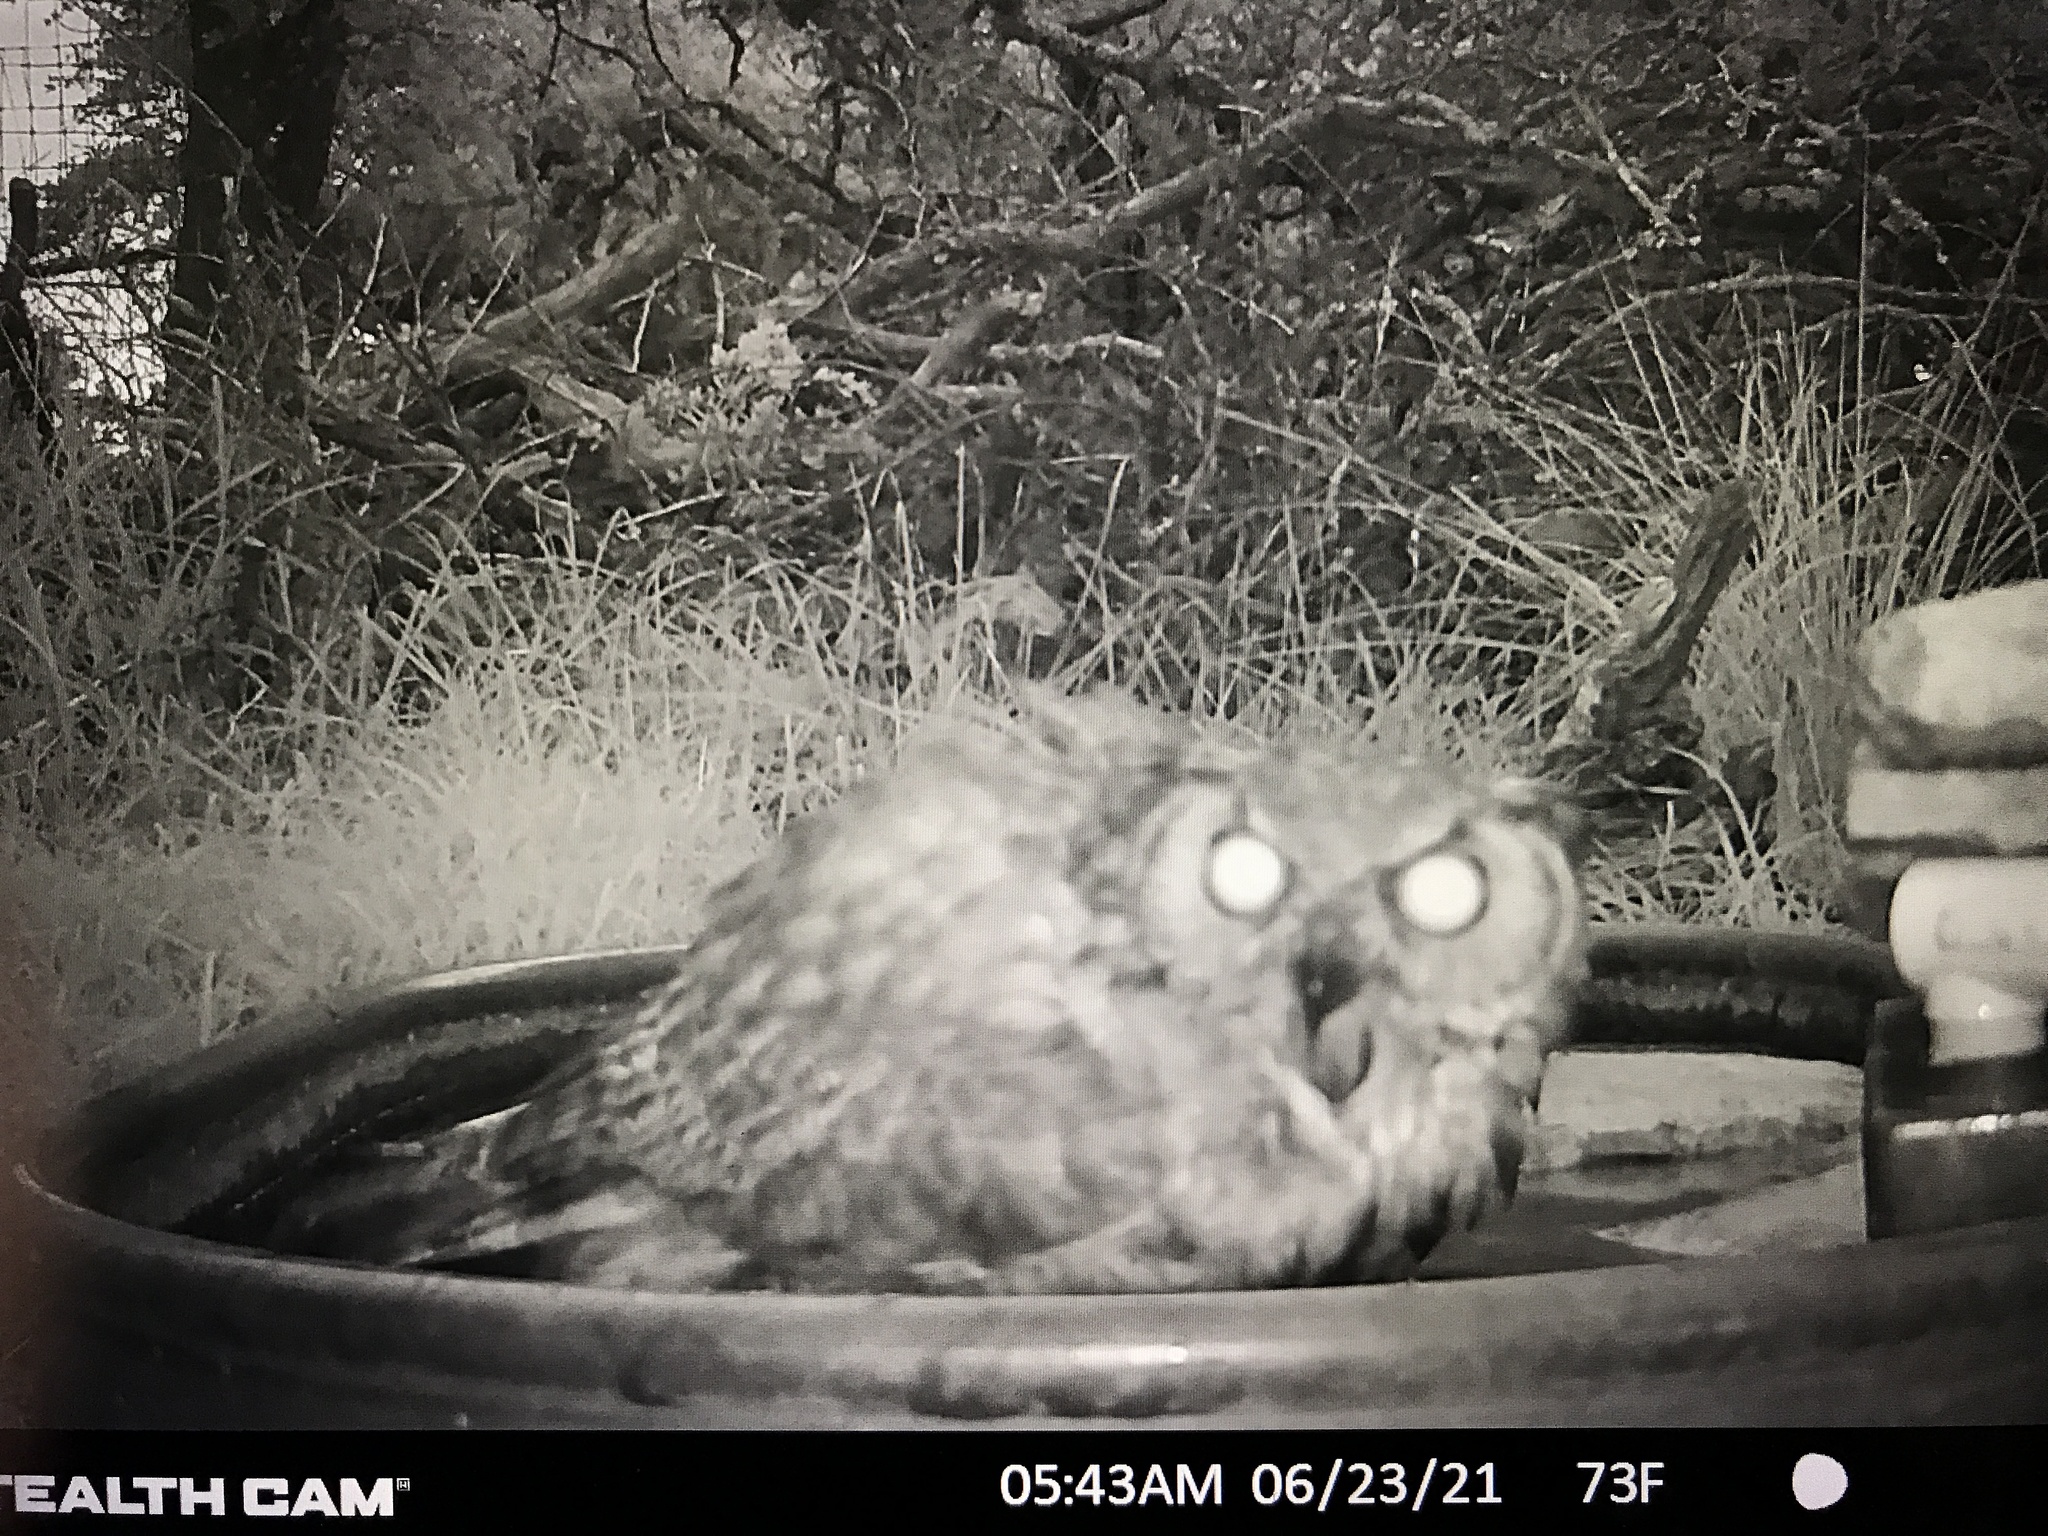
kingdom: Animalia
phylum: Chordata
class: Aves
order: Strigiformes
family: Strigidae
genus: Bubo
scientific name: Bubo virginianus
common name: Great horned owl
